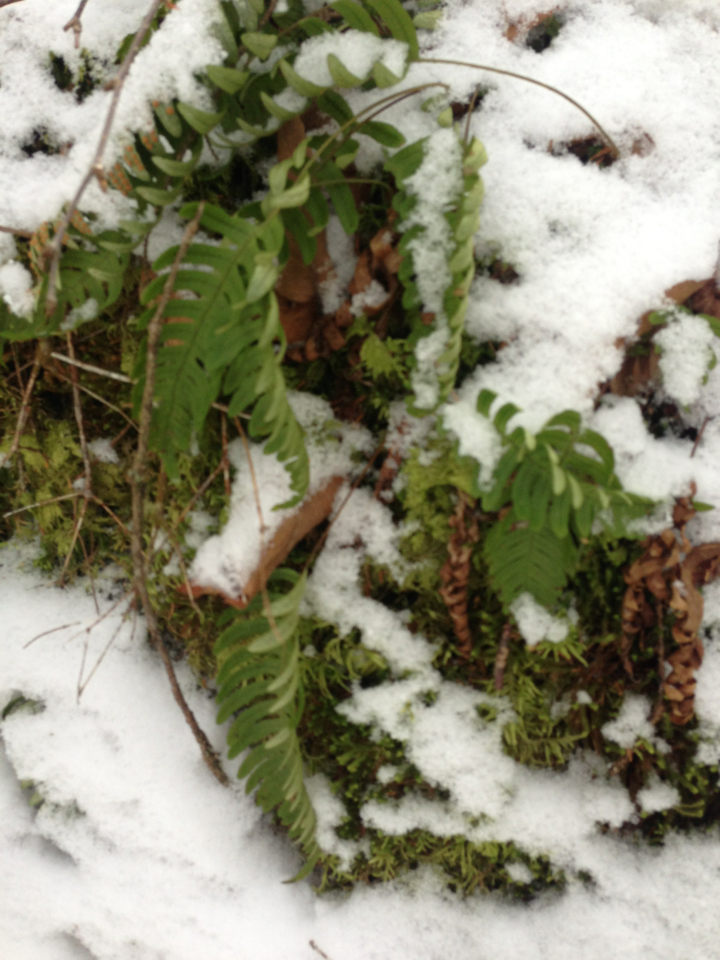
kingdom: Plantae
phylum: Tracheophyta
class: Polypodiopsida
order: Polypodiales
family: Polypodiaceae
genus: Polypodium
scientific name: Polypodium virginianum
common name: American wall fern
